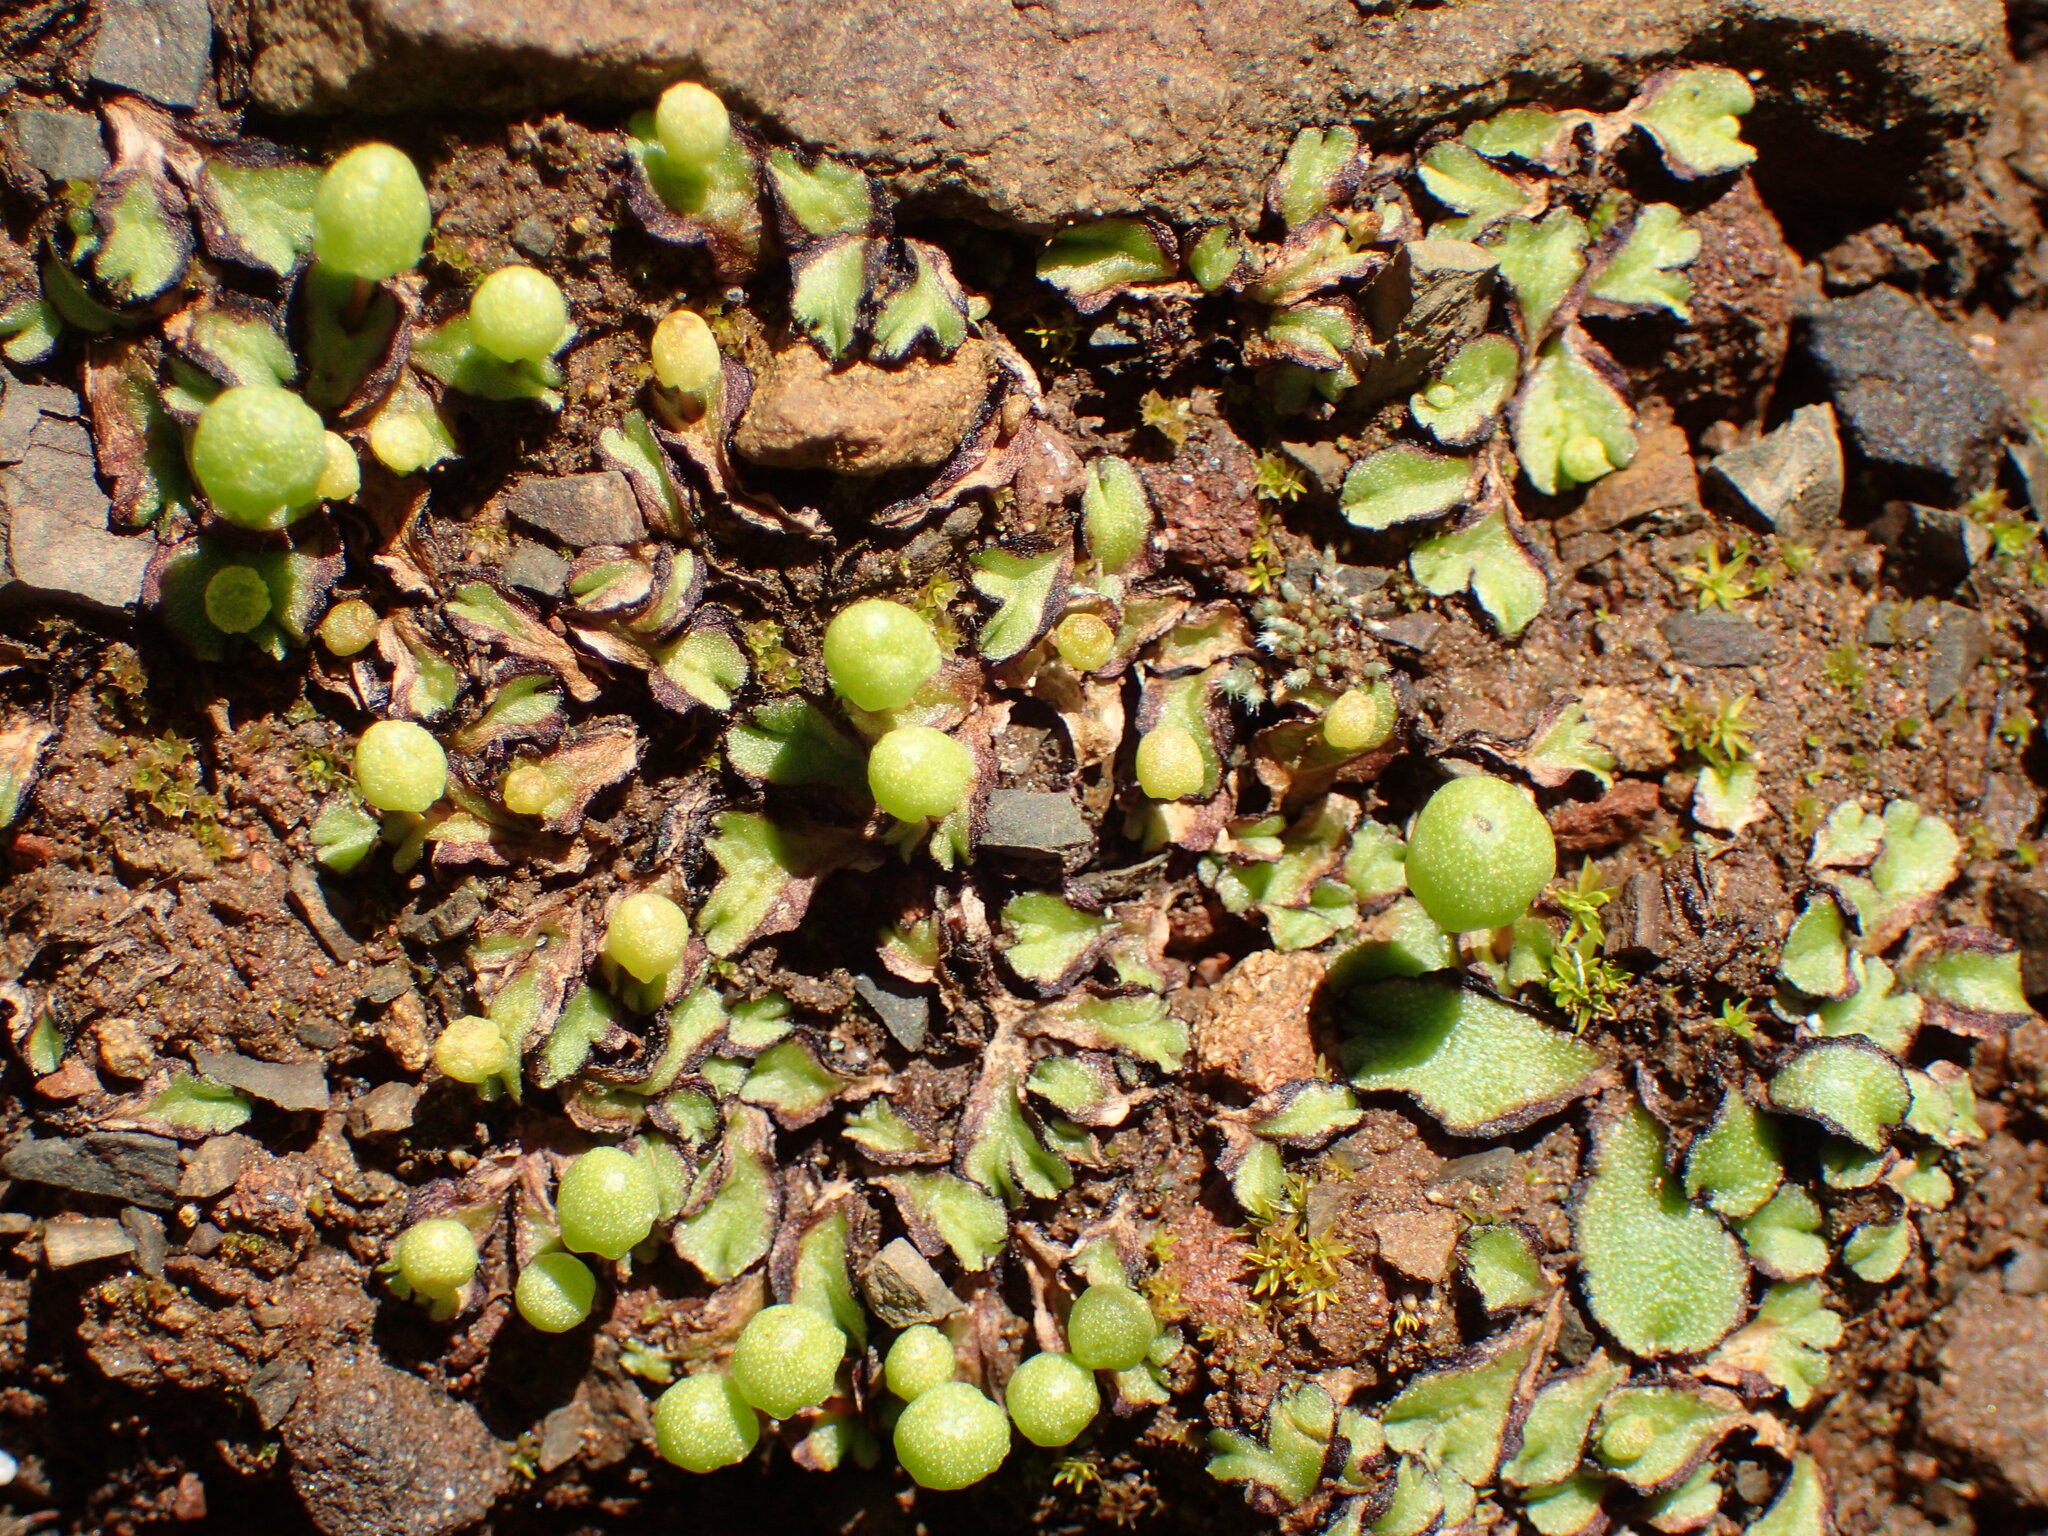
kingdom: Plantae
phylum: Marchantiophyta
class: Marchantiopsida
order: Marchantiales
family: Aytoniaceae
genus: Asterella
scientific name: Asterella palmeri
